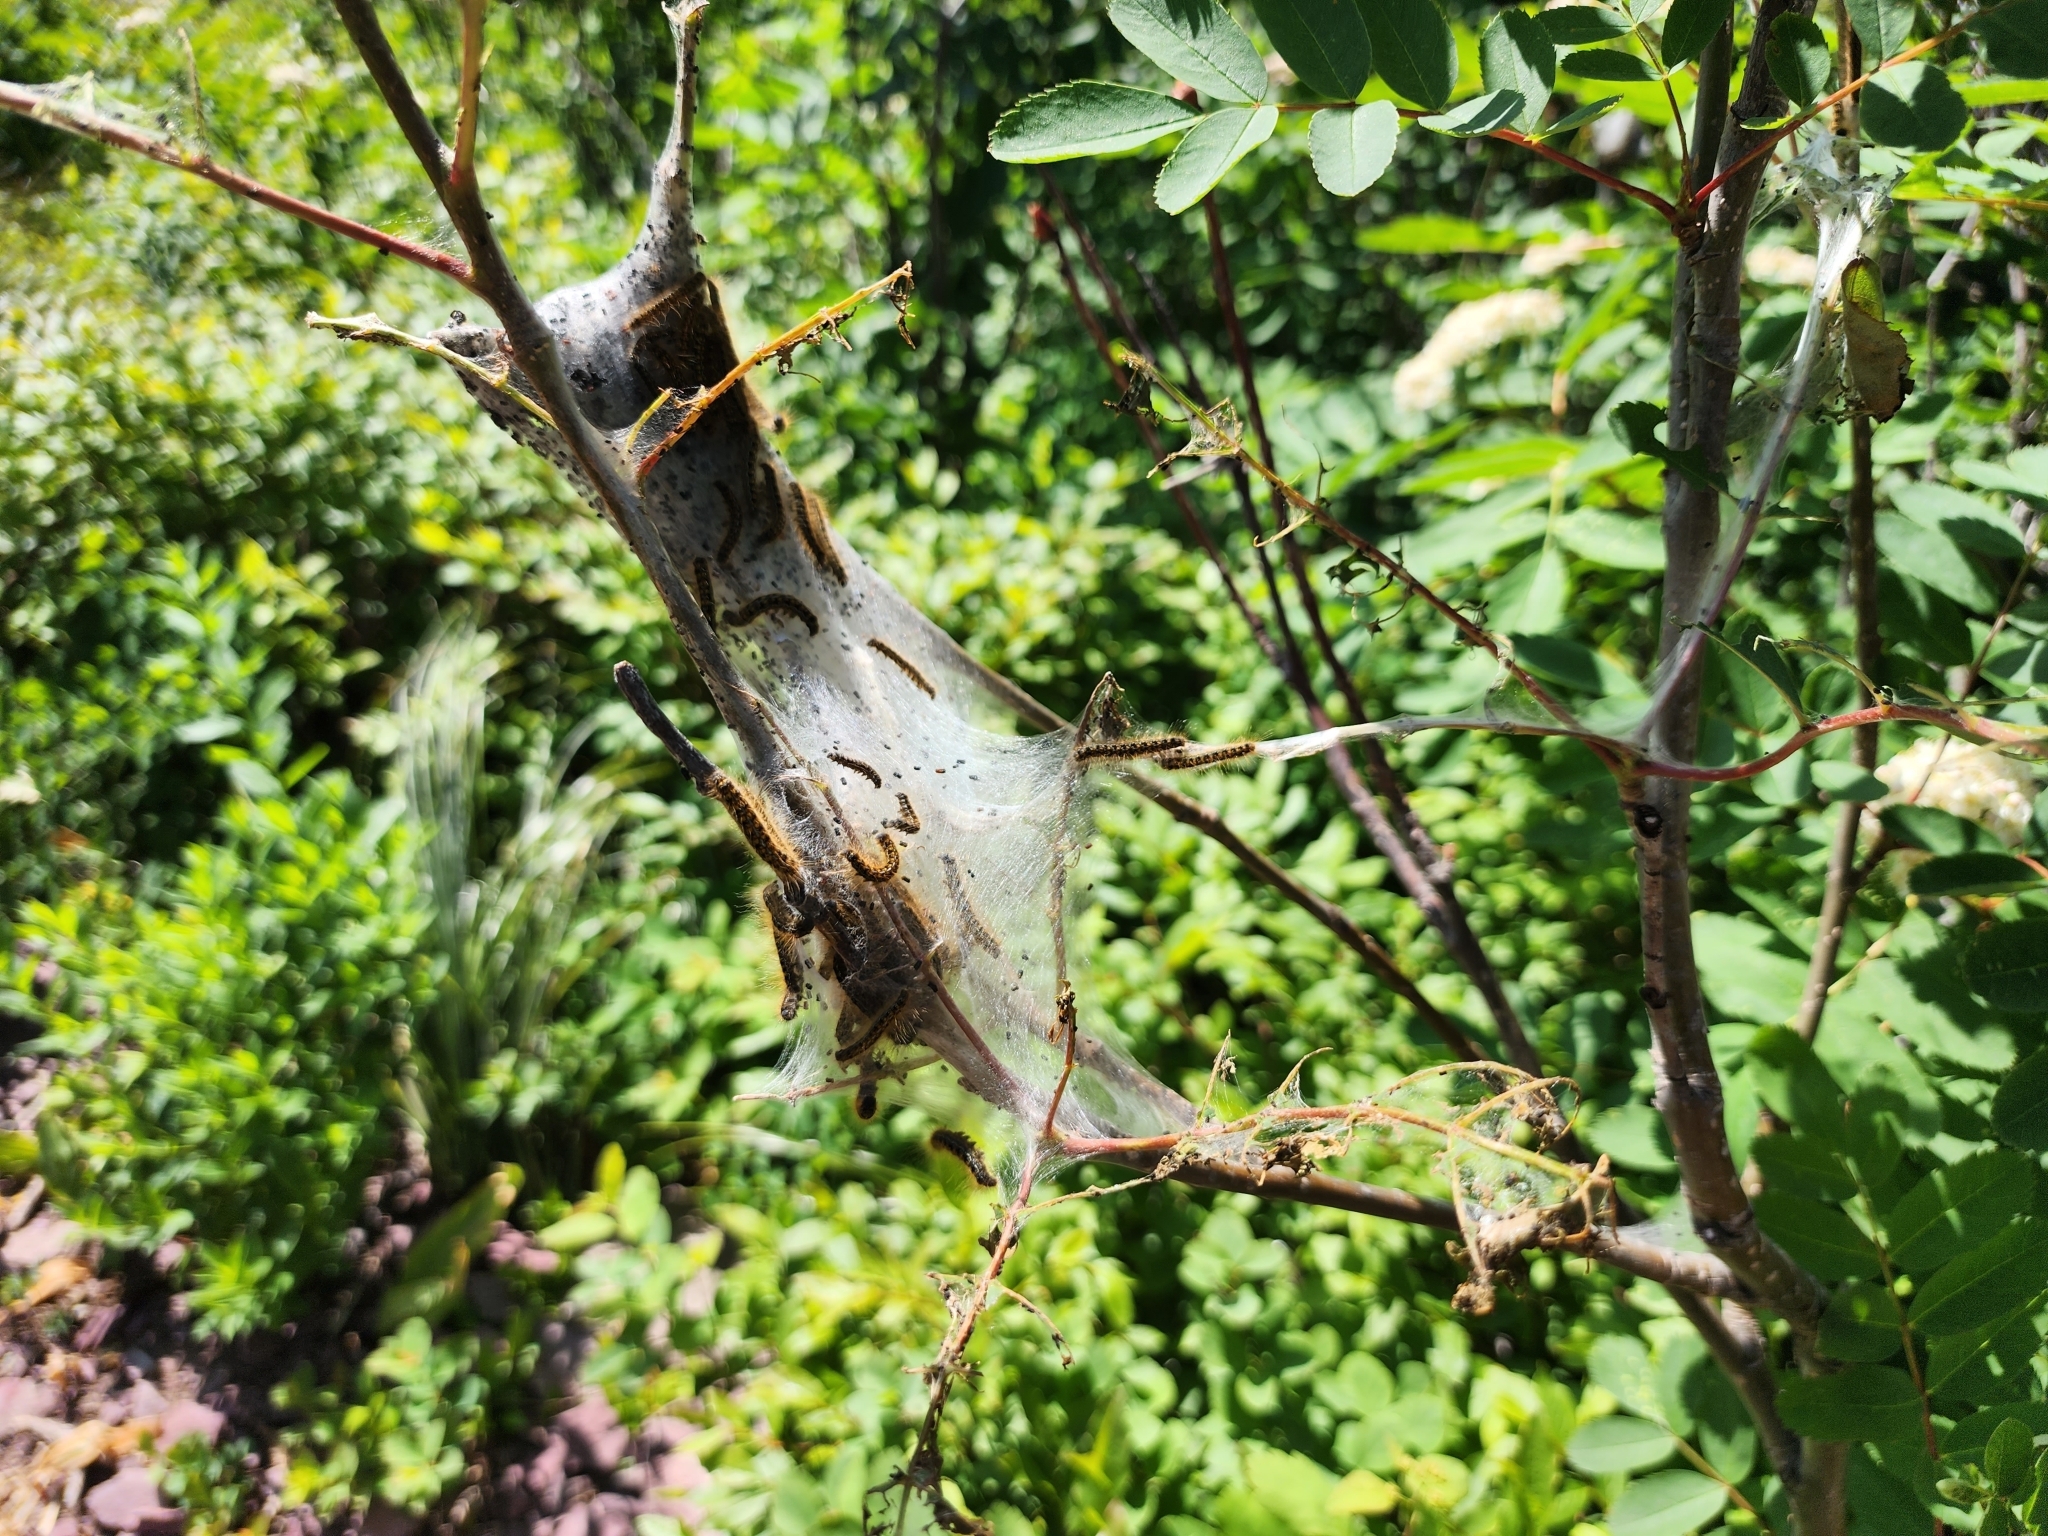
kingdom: Animalia
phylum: Arthropoda
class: Insecta
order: Lepidoptera
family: Lasiocampidae
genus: Malacosoma
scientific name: Malacosoma californica
